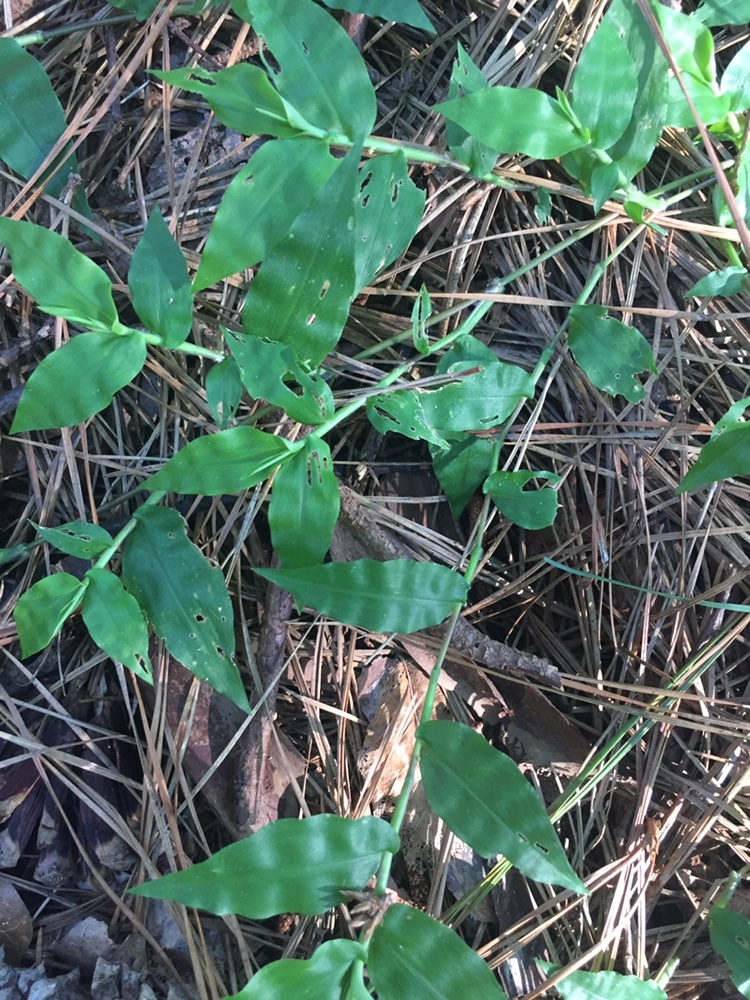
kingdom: Plantae
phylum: Tracheophyta
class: Liliopsida
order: Poales
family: Poaceae
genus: Oplismenus
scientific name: Oplismenus hirtellus
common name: Basketgrass
